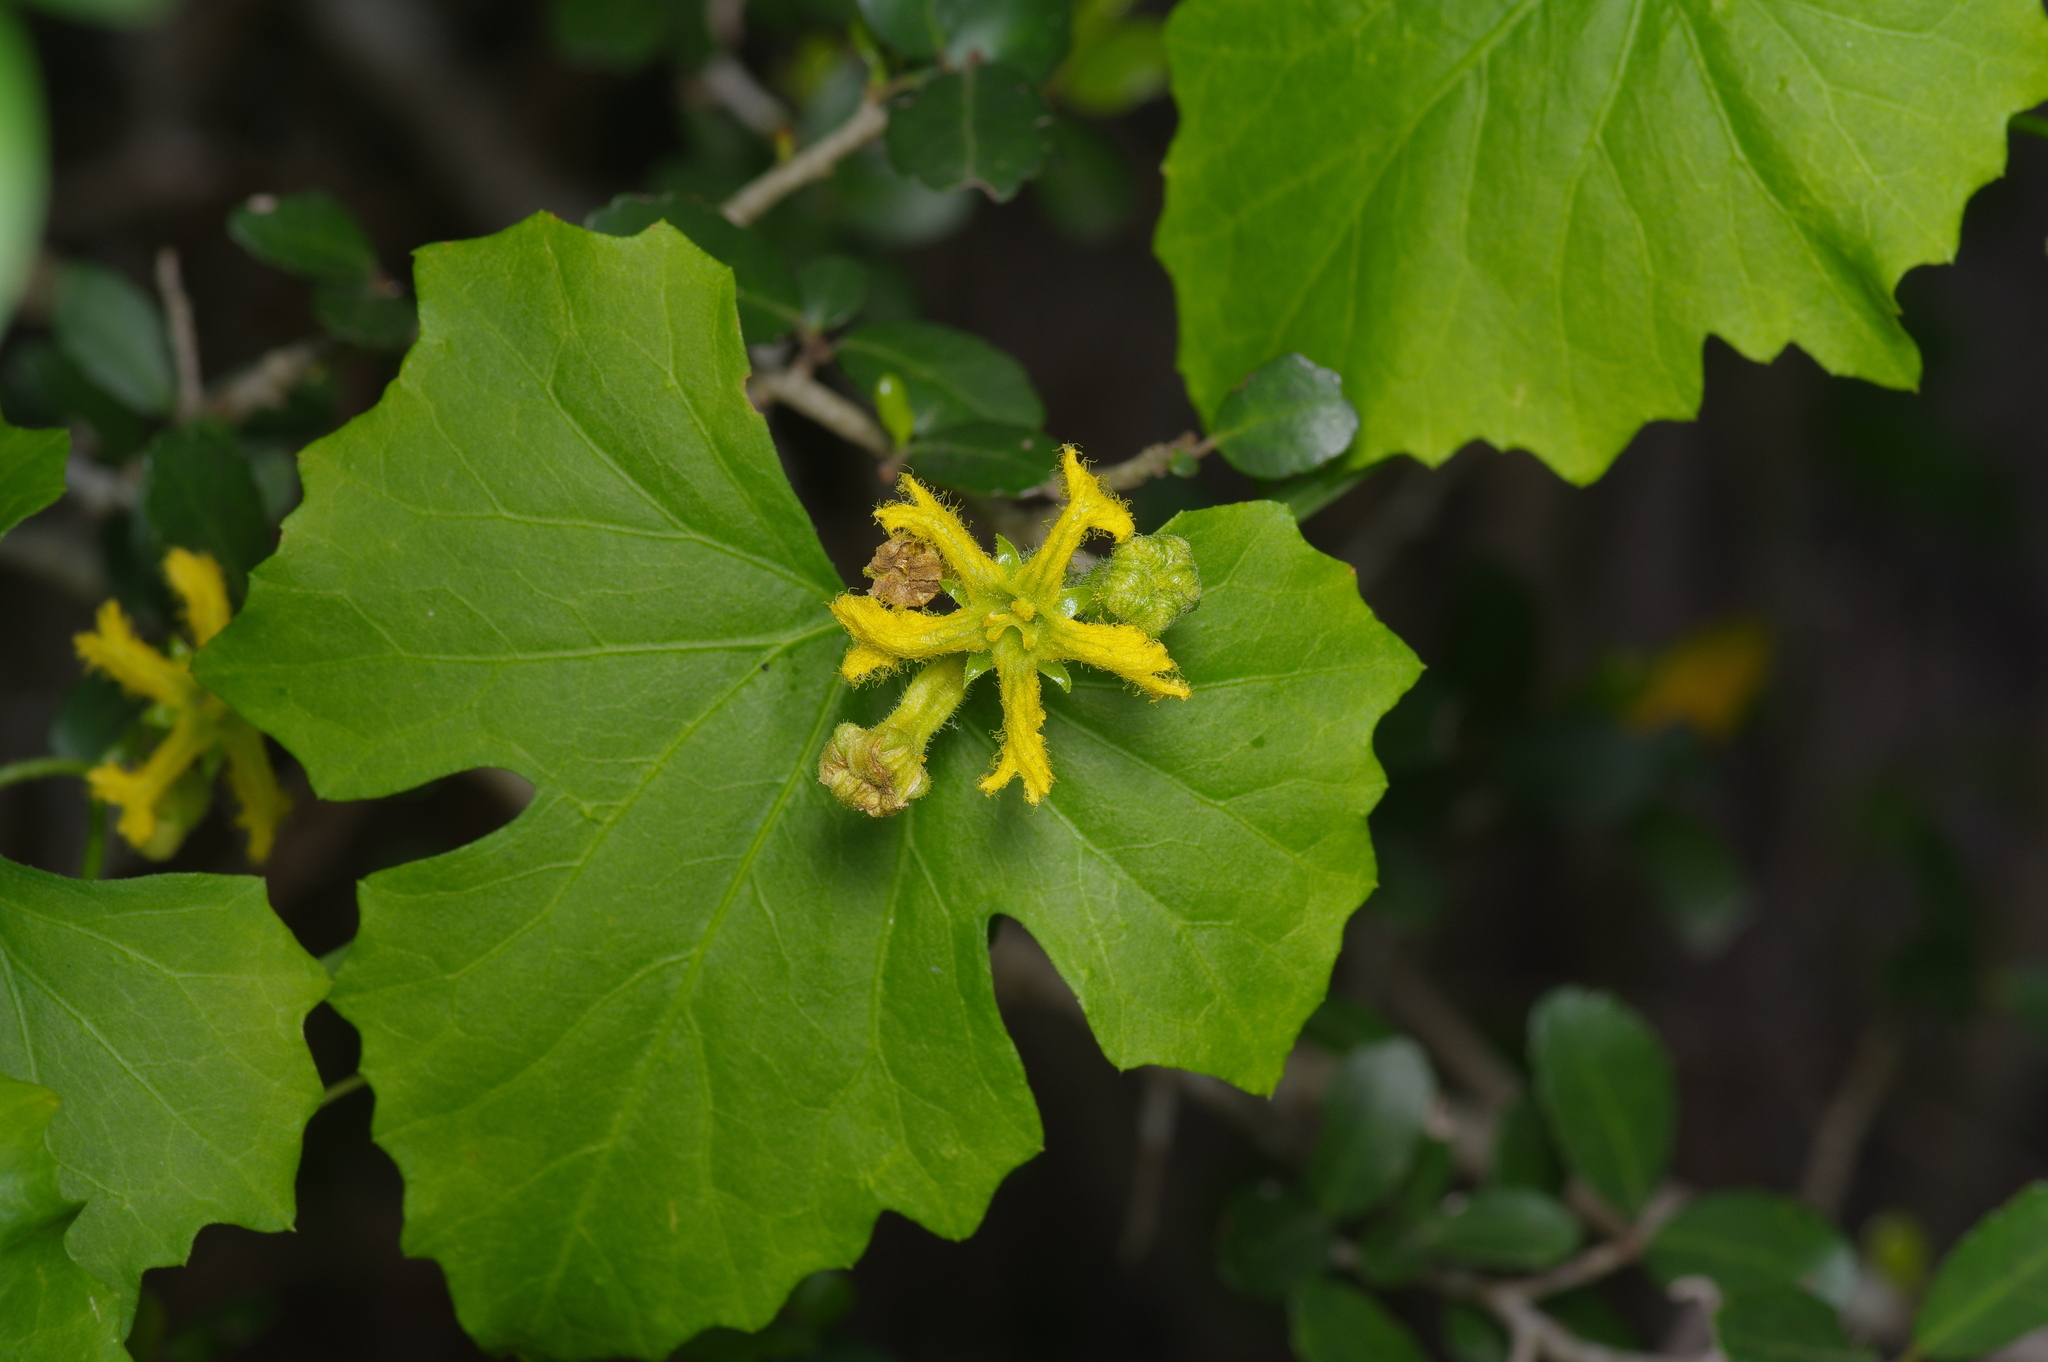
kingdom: Plantae
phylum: Tracheophyta
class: Magnoliopsida
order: Cucurbitales
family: Cucurbitaceae
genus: Ibervillea
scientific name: Ibervillea lindheimeri
